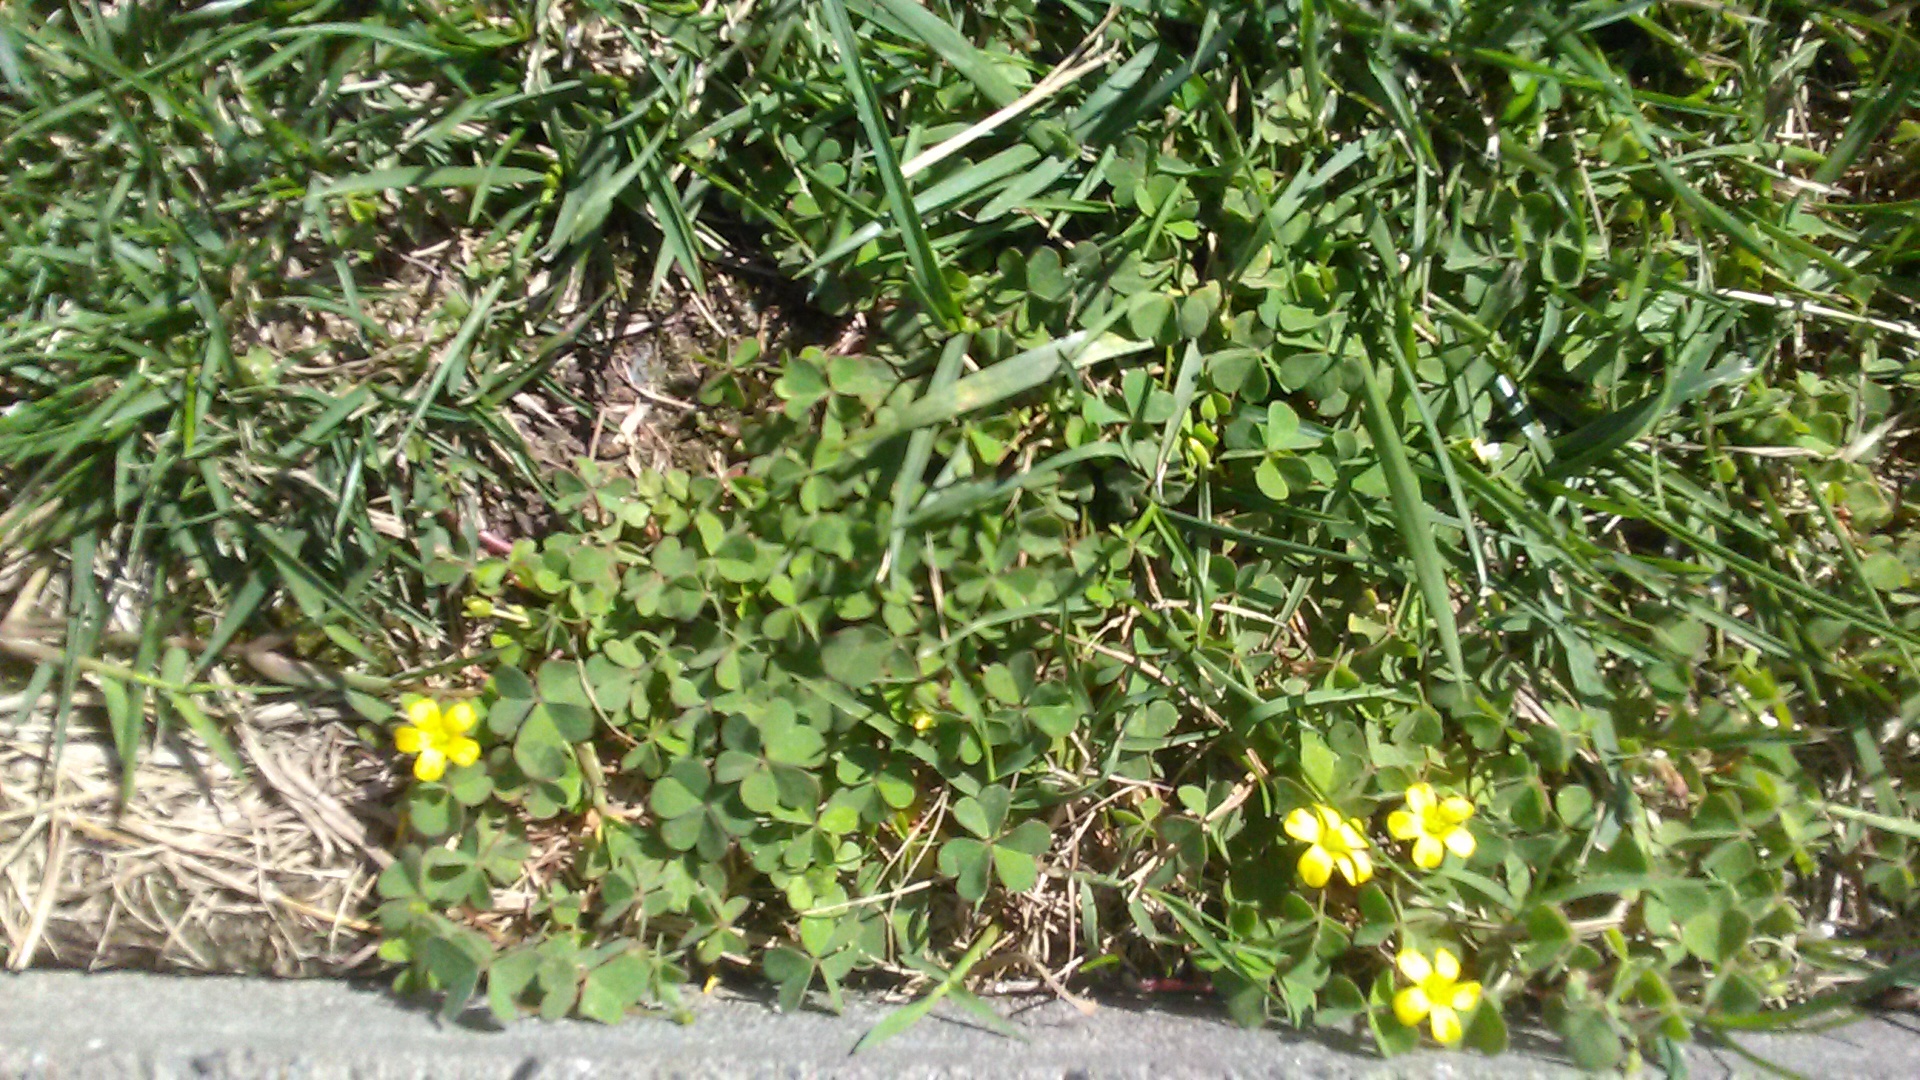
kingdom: Plantae
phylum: Tracheophyta
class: Magnoliopsida
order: Oxalidales
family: Oxalidaceae
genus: Oxalis
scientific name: Oxalis corniculata
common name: Procumbent yellow-sorrel
